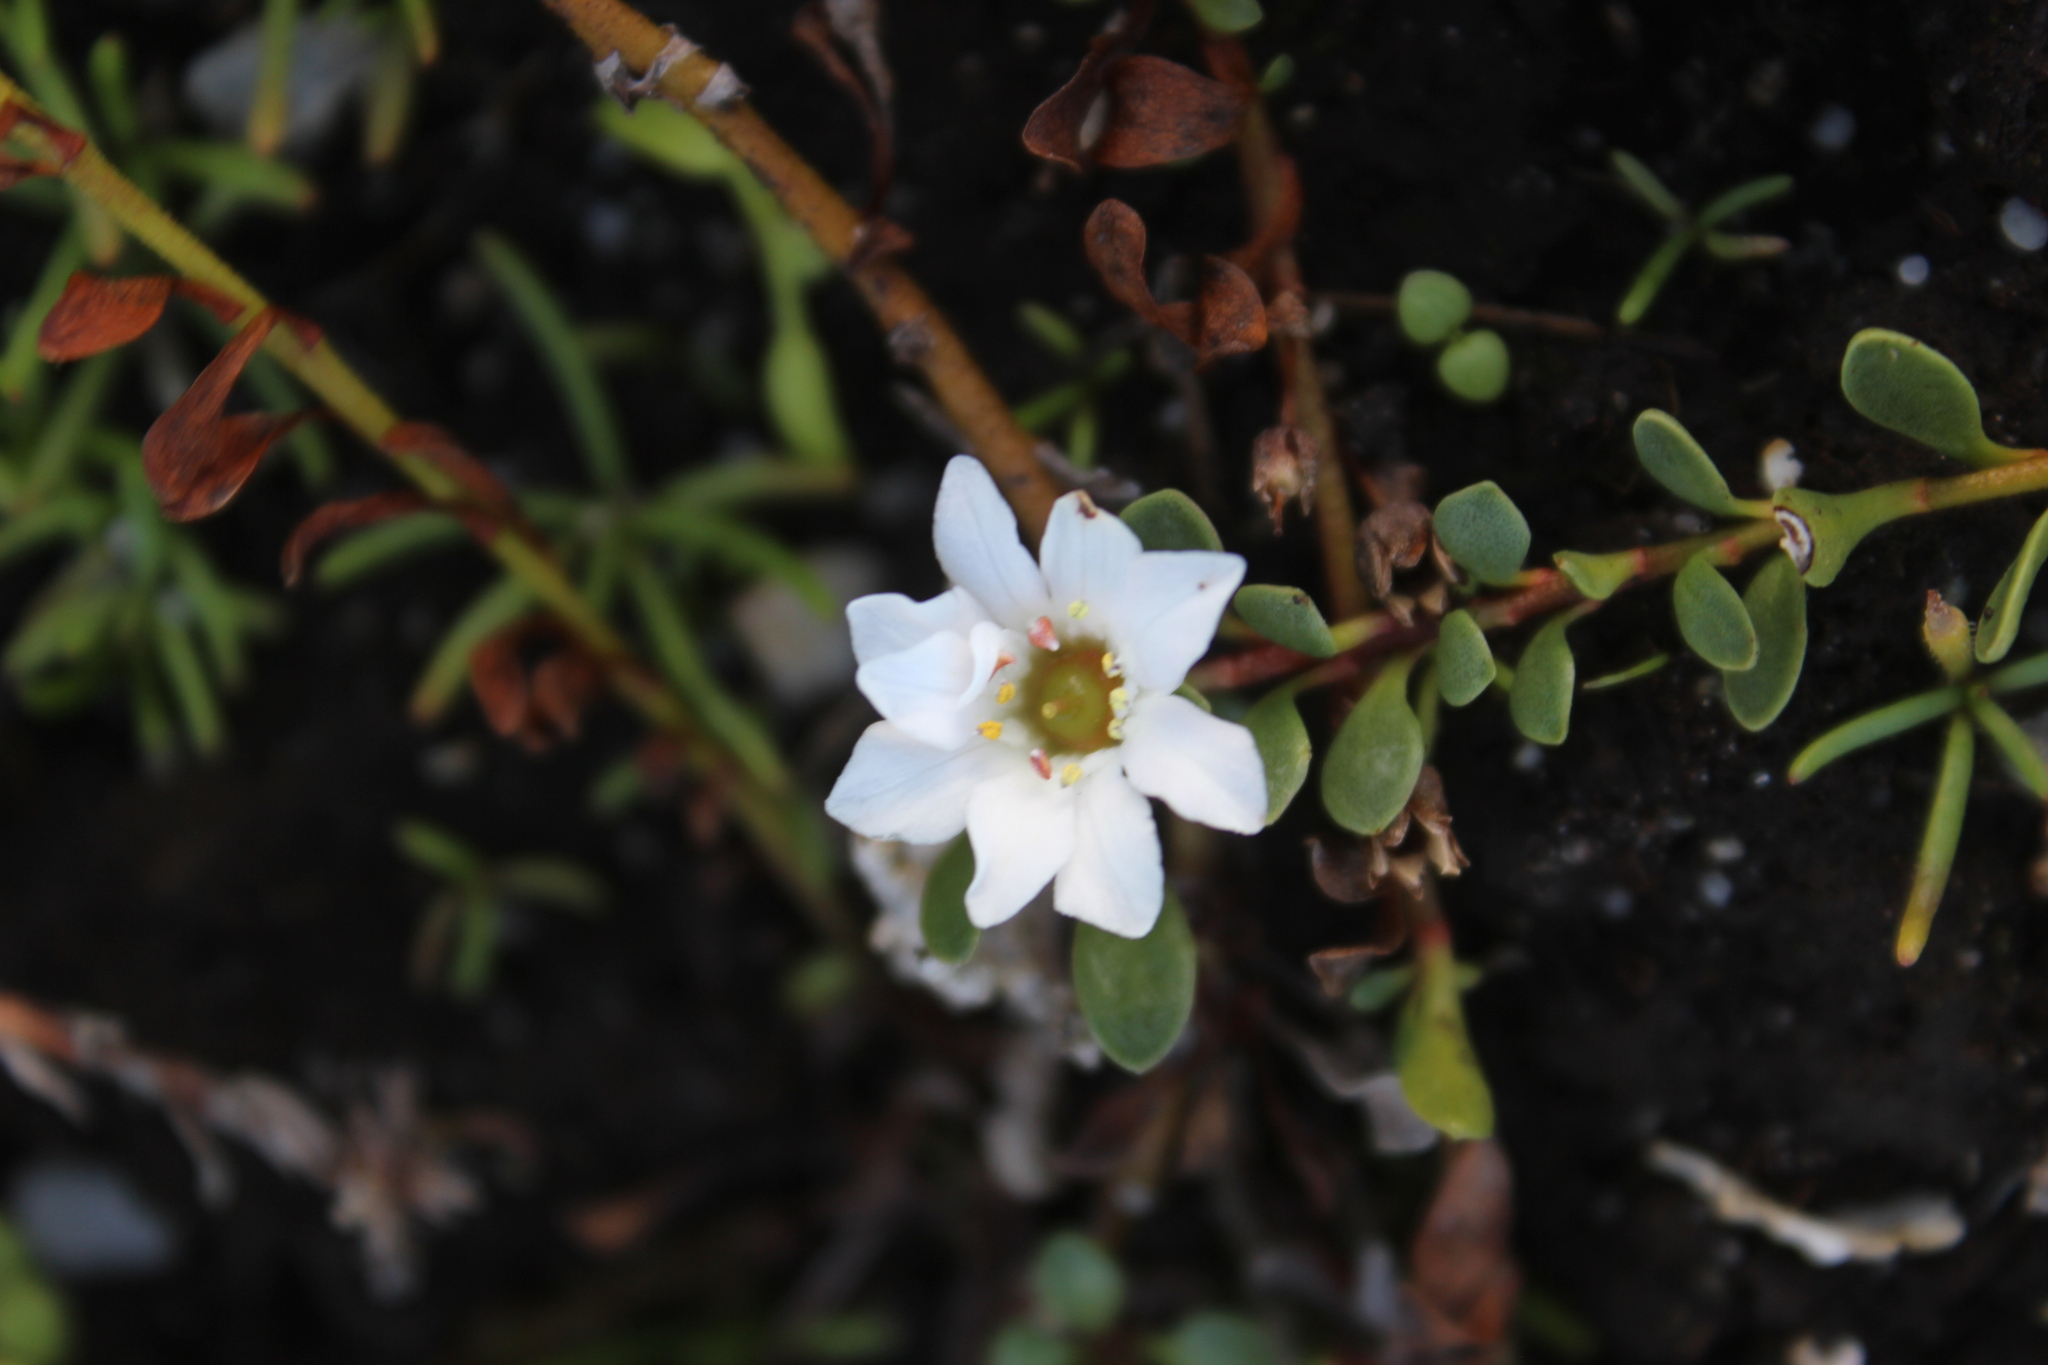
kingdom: Plantae
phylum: Tracheophyta
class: Magnoliopsida
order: Ericales
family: Primulaceae
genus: Samolus
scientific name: Samolus repens
